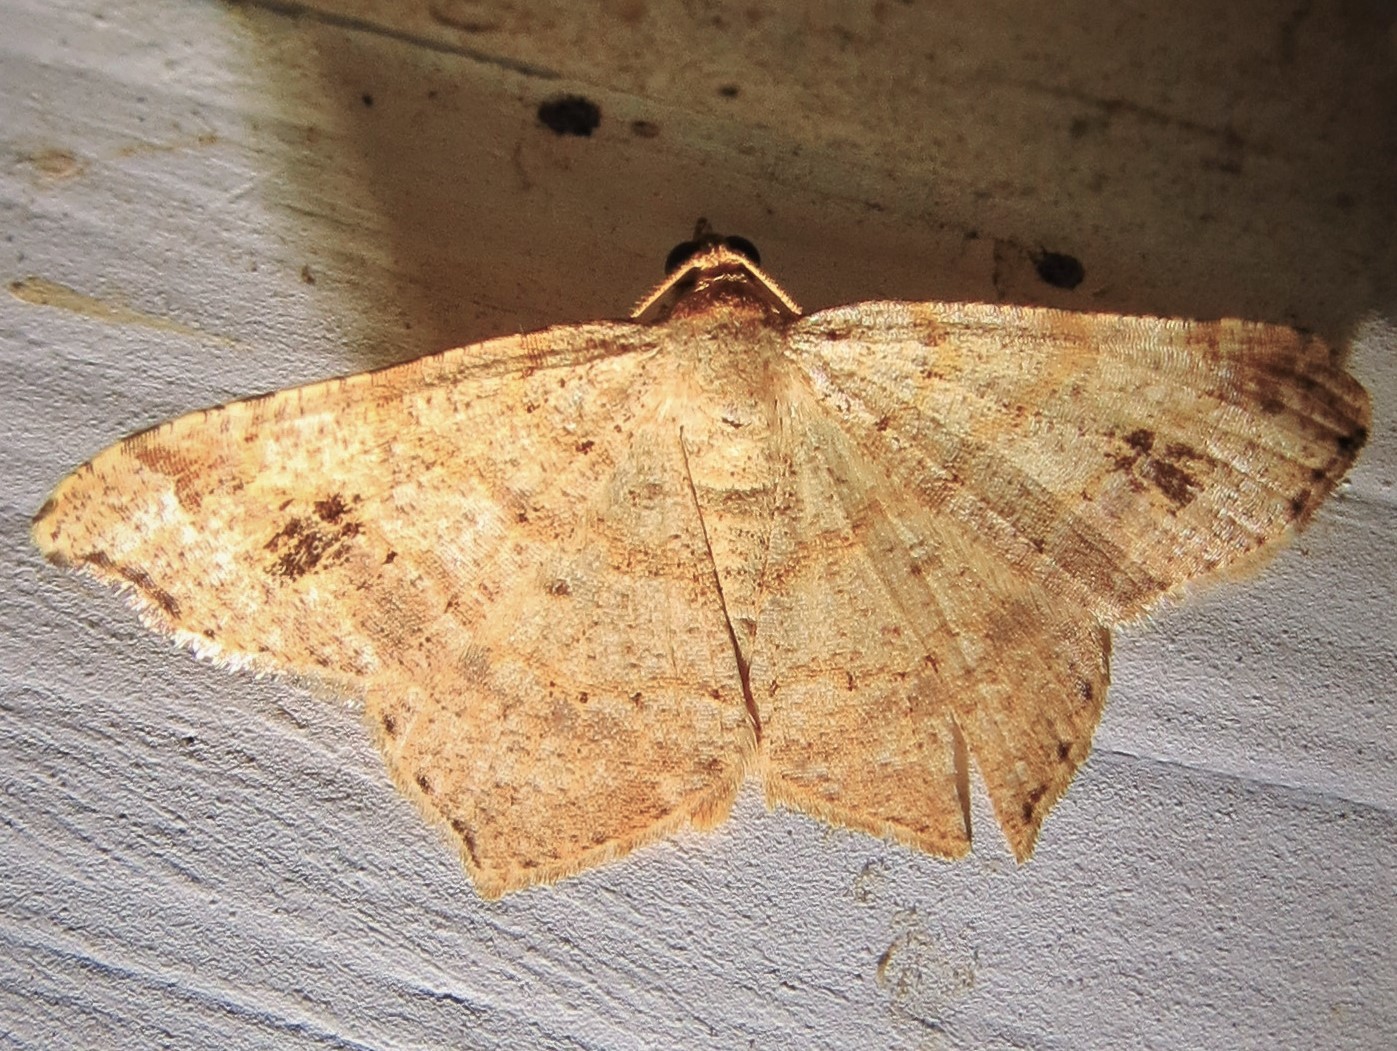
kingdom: Animalia
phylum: Arthropoda
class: Insecta
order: Lepidoptera
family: Geometridae
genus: Macaria
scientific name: Macaria abydata
